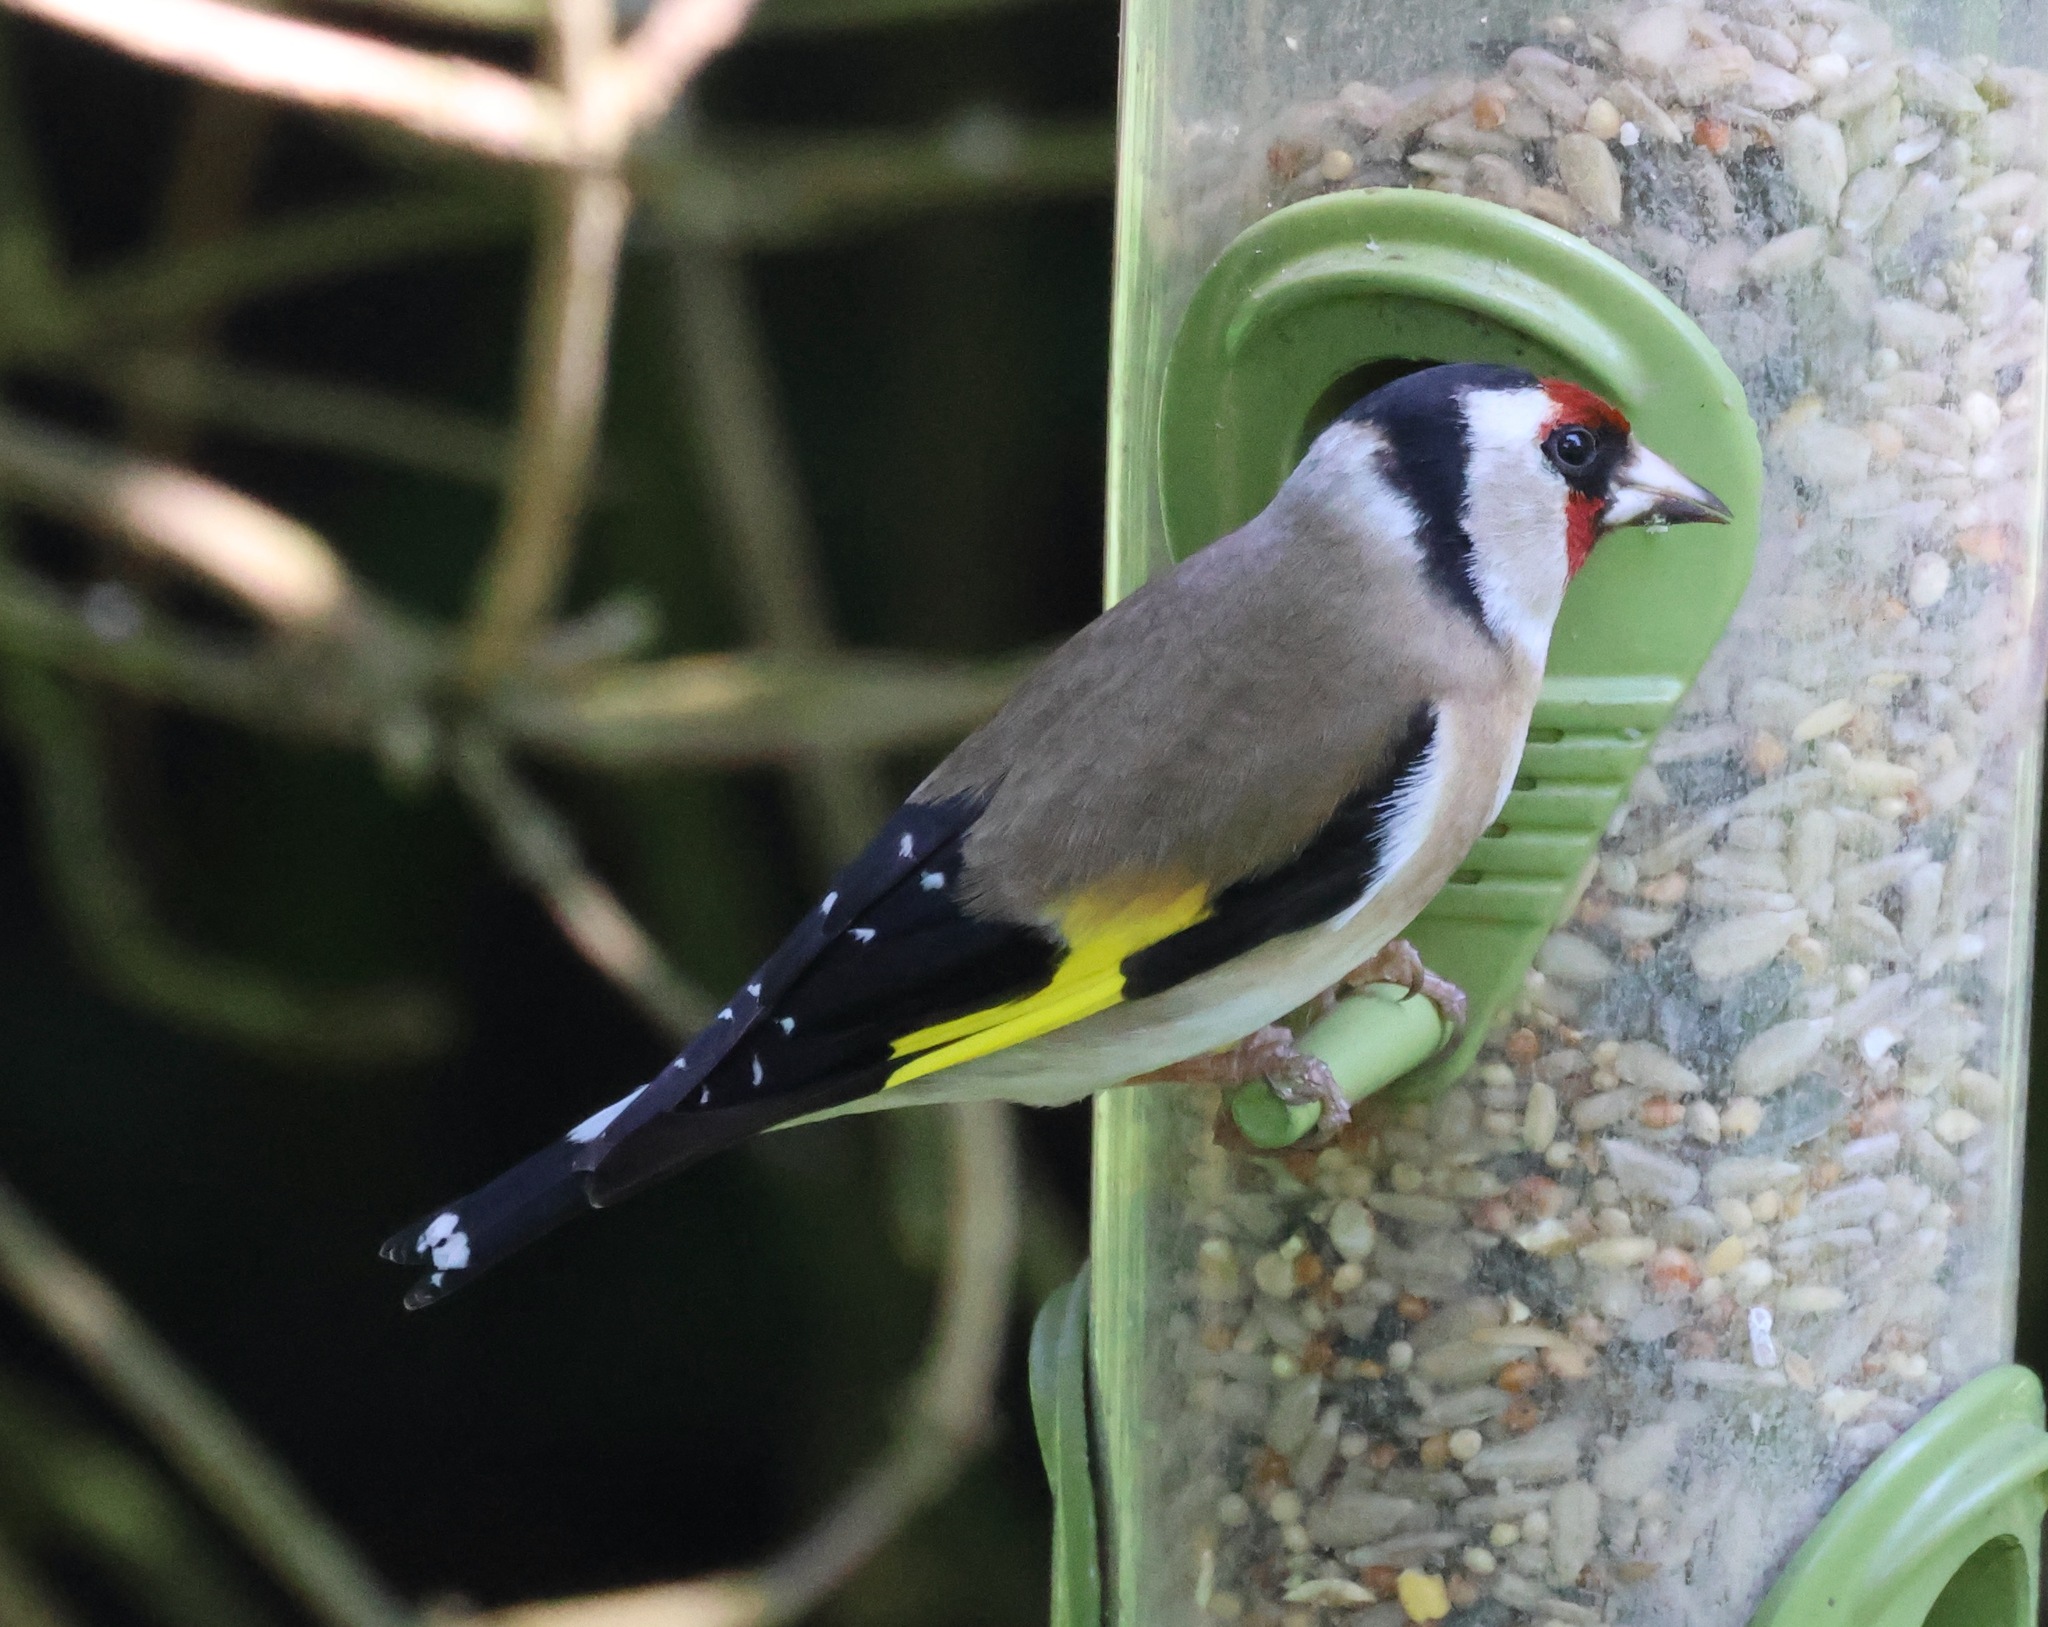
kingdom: Animalia
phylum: Chordata
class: Aves
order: Passeriformes
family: Fringillidae
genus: Carduelis
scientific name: Carduelis carduelis
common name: European goldfinch
